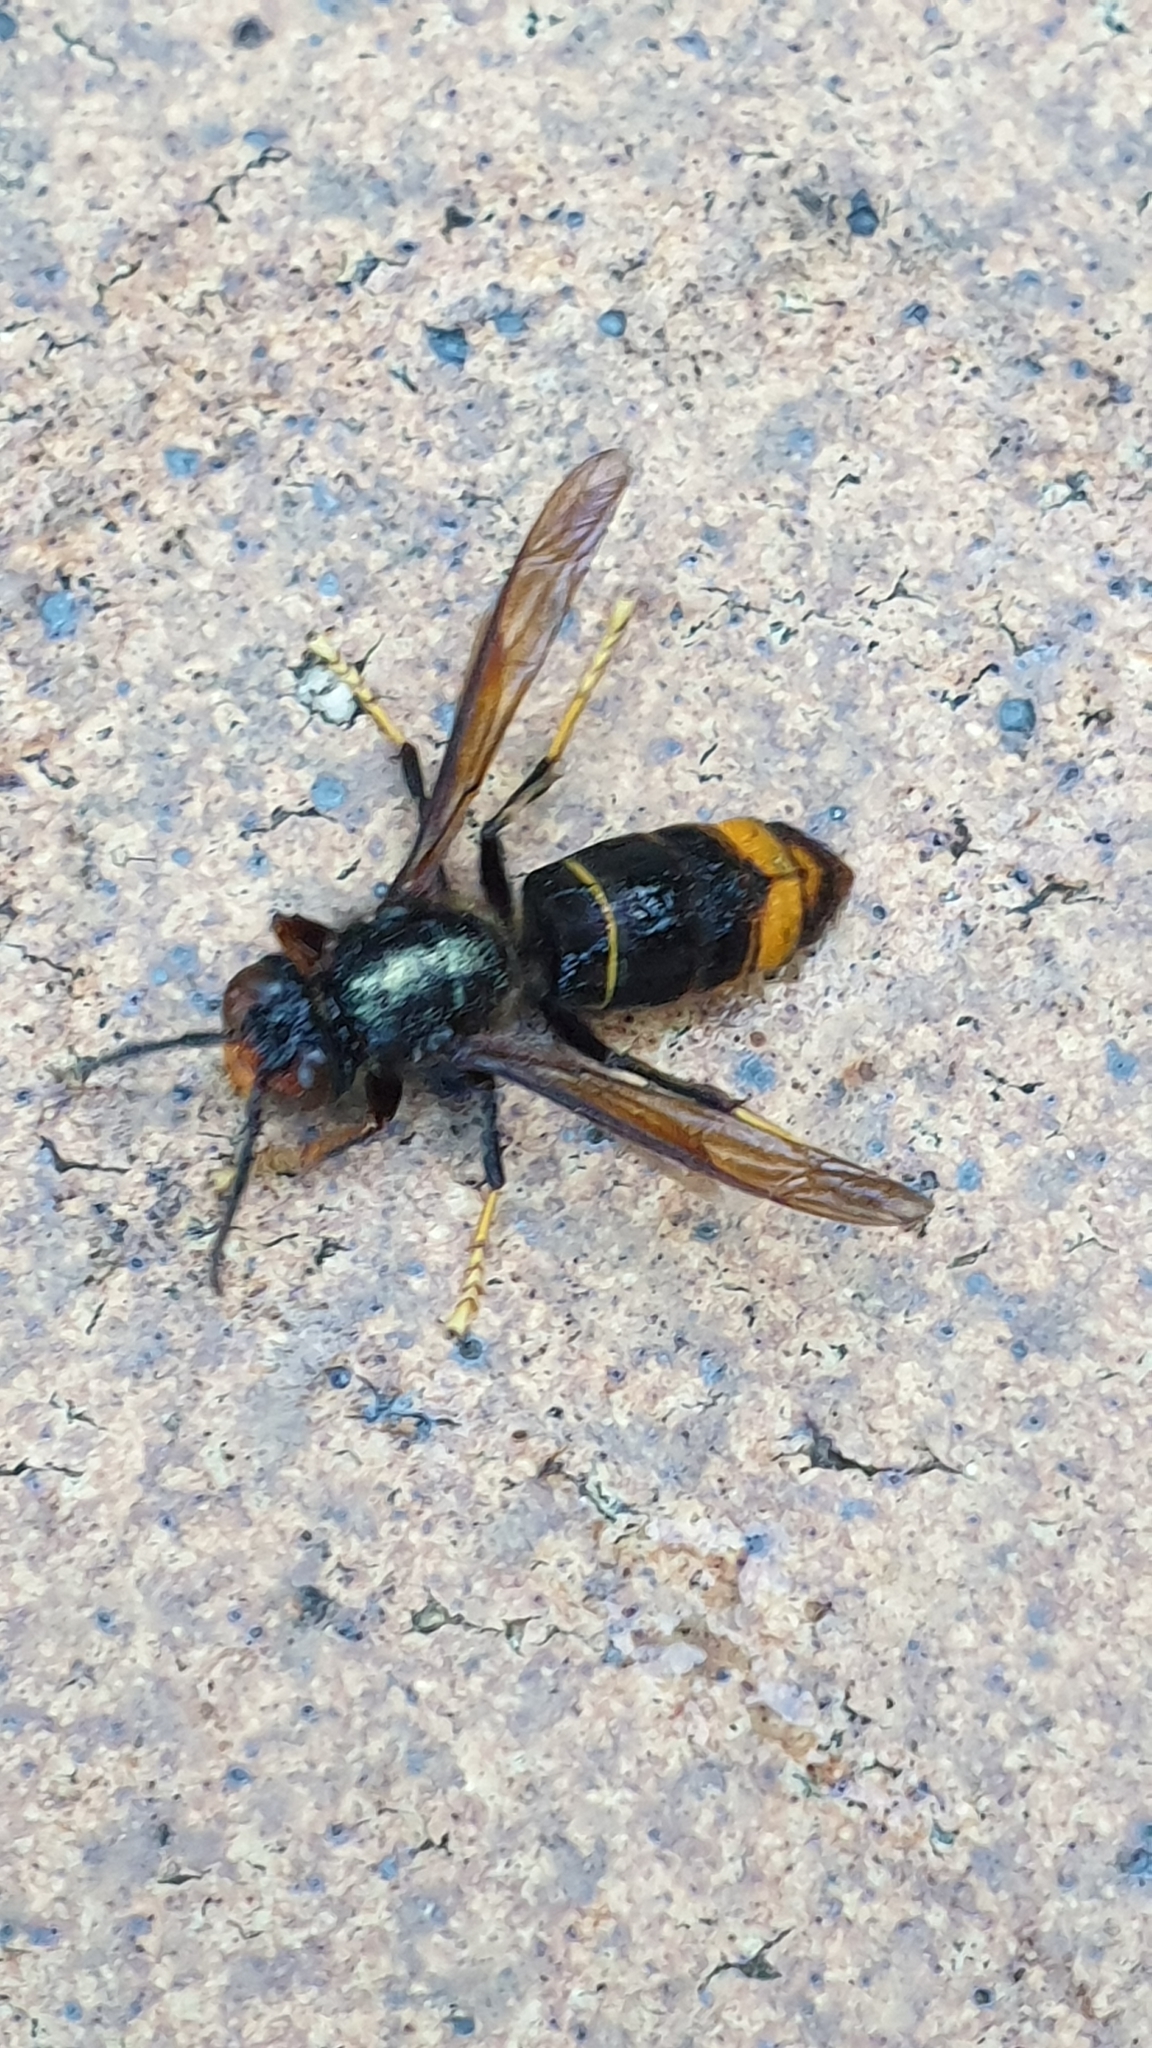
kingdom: Animalia
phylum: Arthropoda
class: Insecta
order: Hymenoptera
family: Vespidae
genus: Vespa
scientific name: Vespa velutina
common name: Asian hornet
